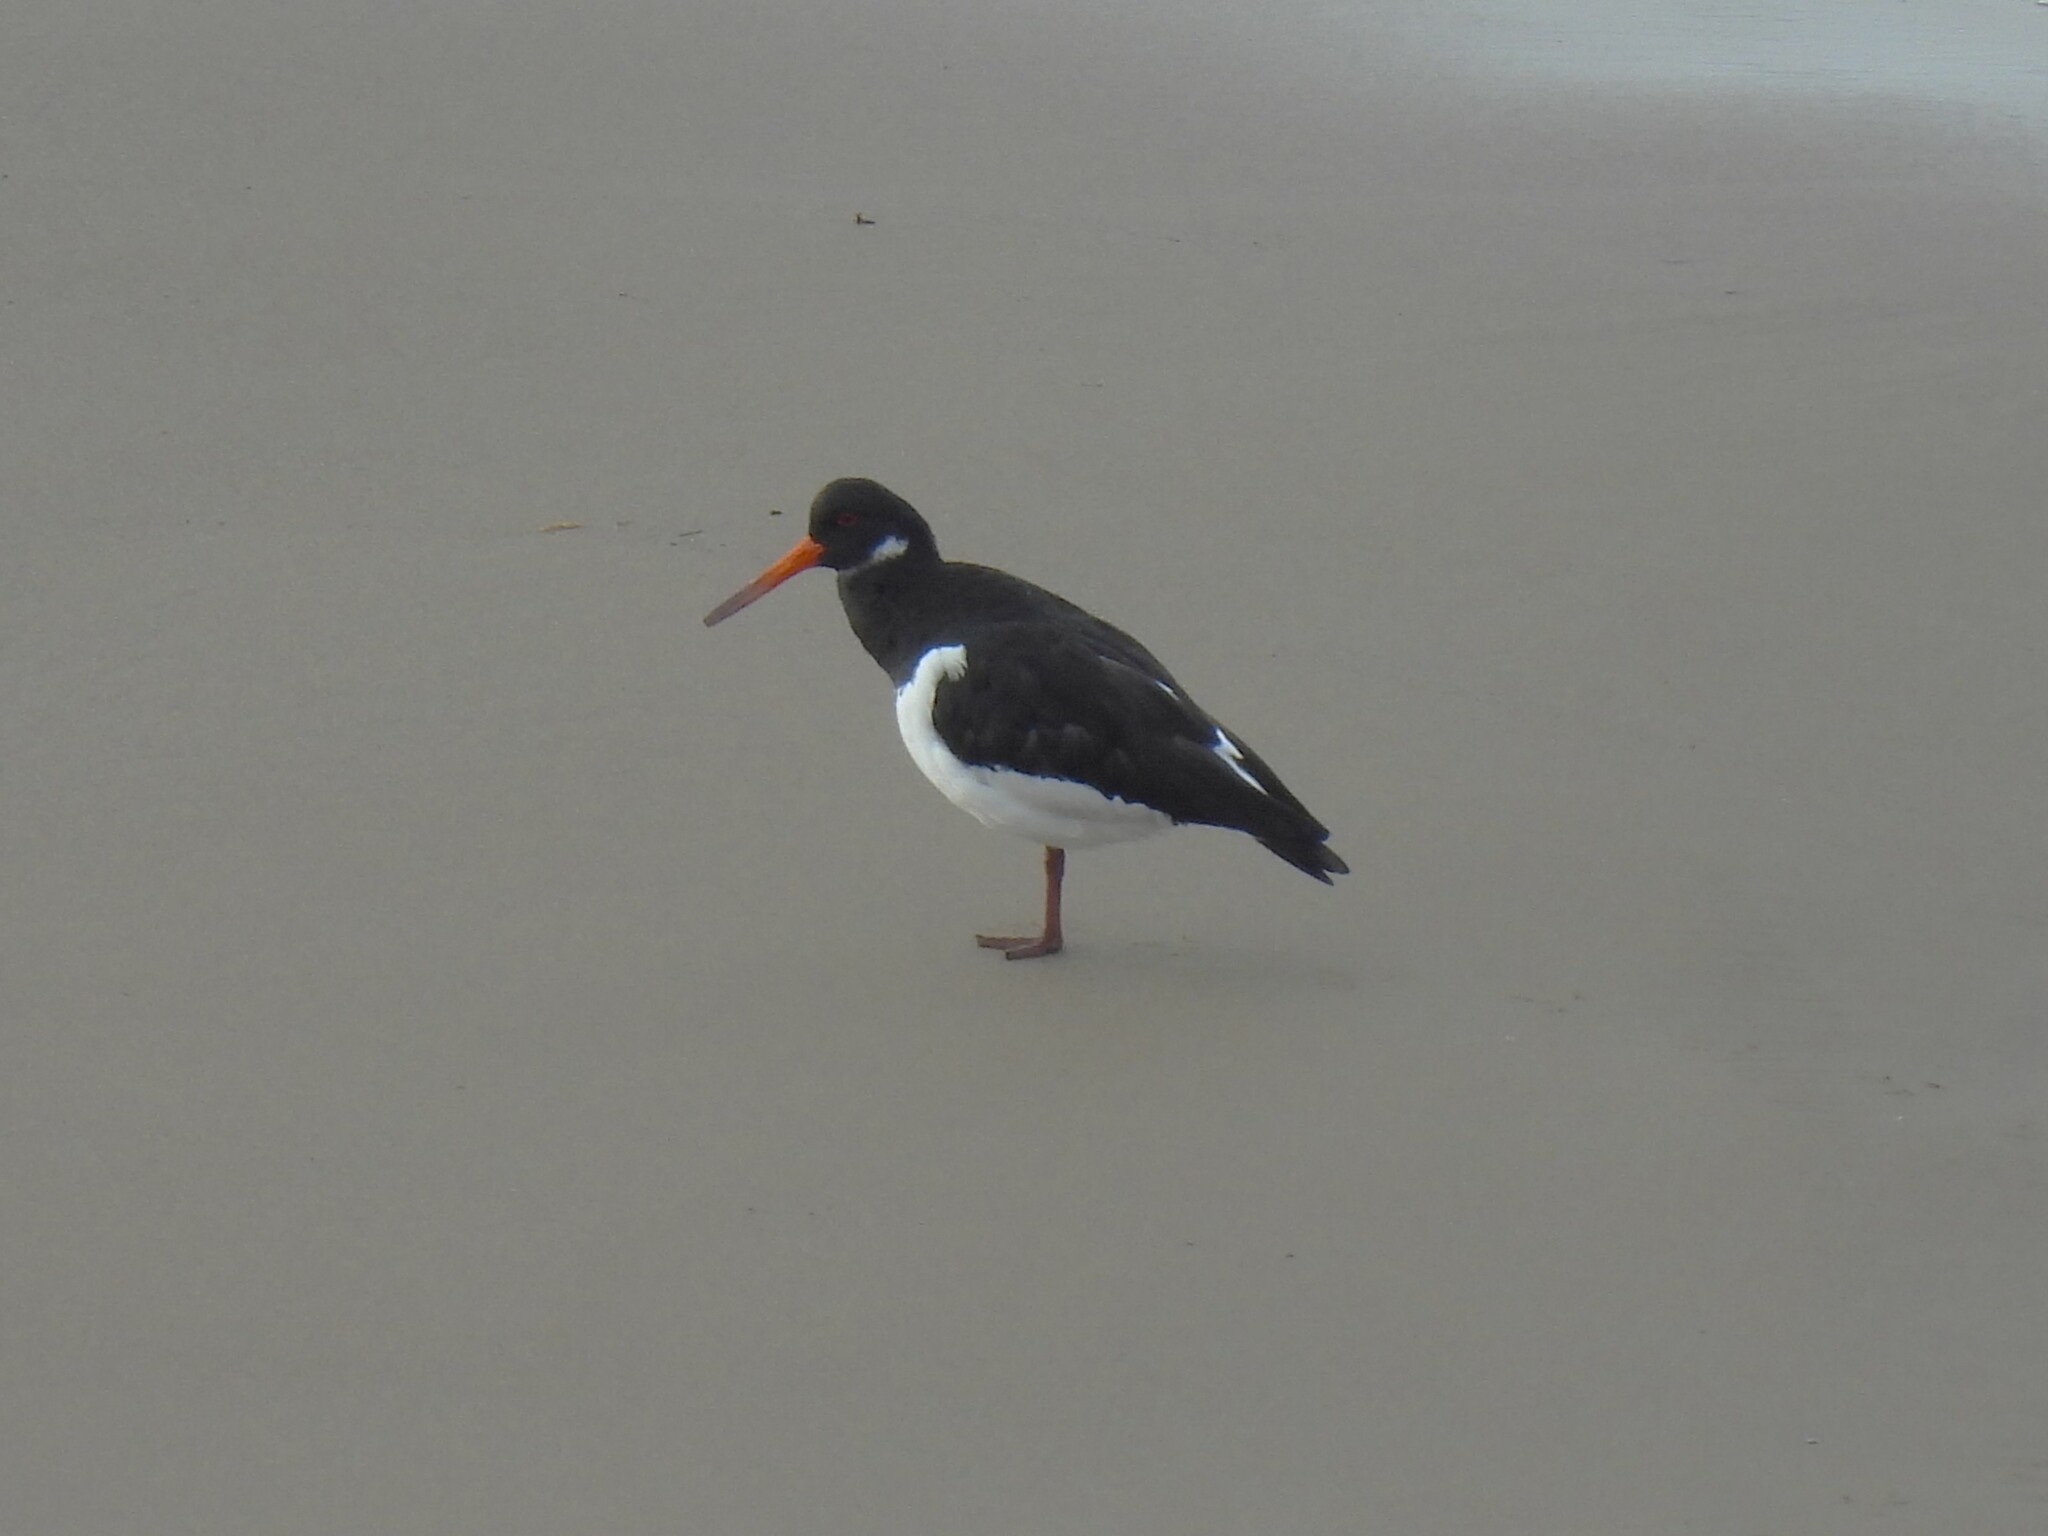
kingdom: Animalia
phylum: Chordata
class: Aves
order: Charadriiformes
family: Haematopodidae
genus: Haematopus
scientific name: Haematopus ostralegus
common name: Eurasian oystercatcher
